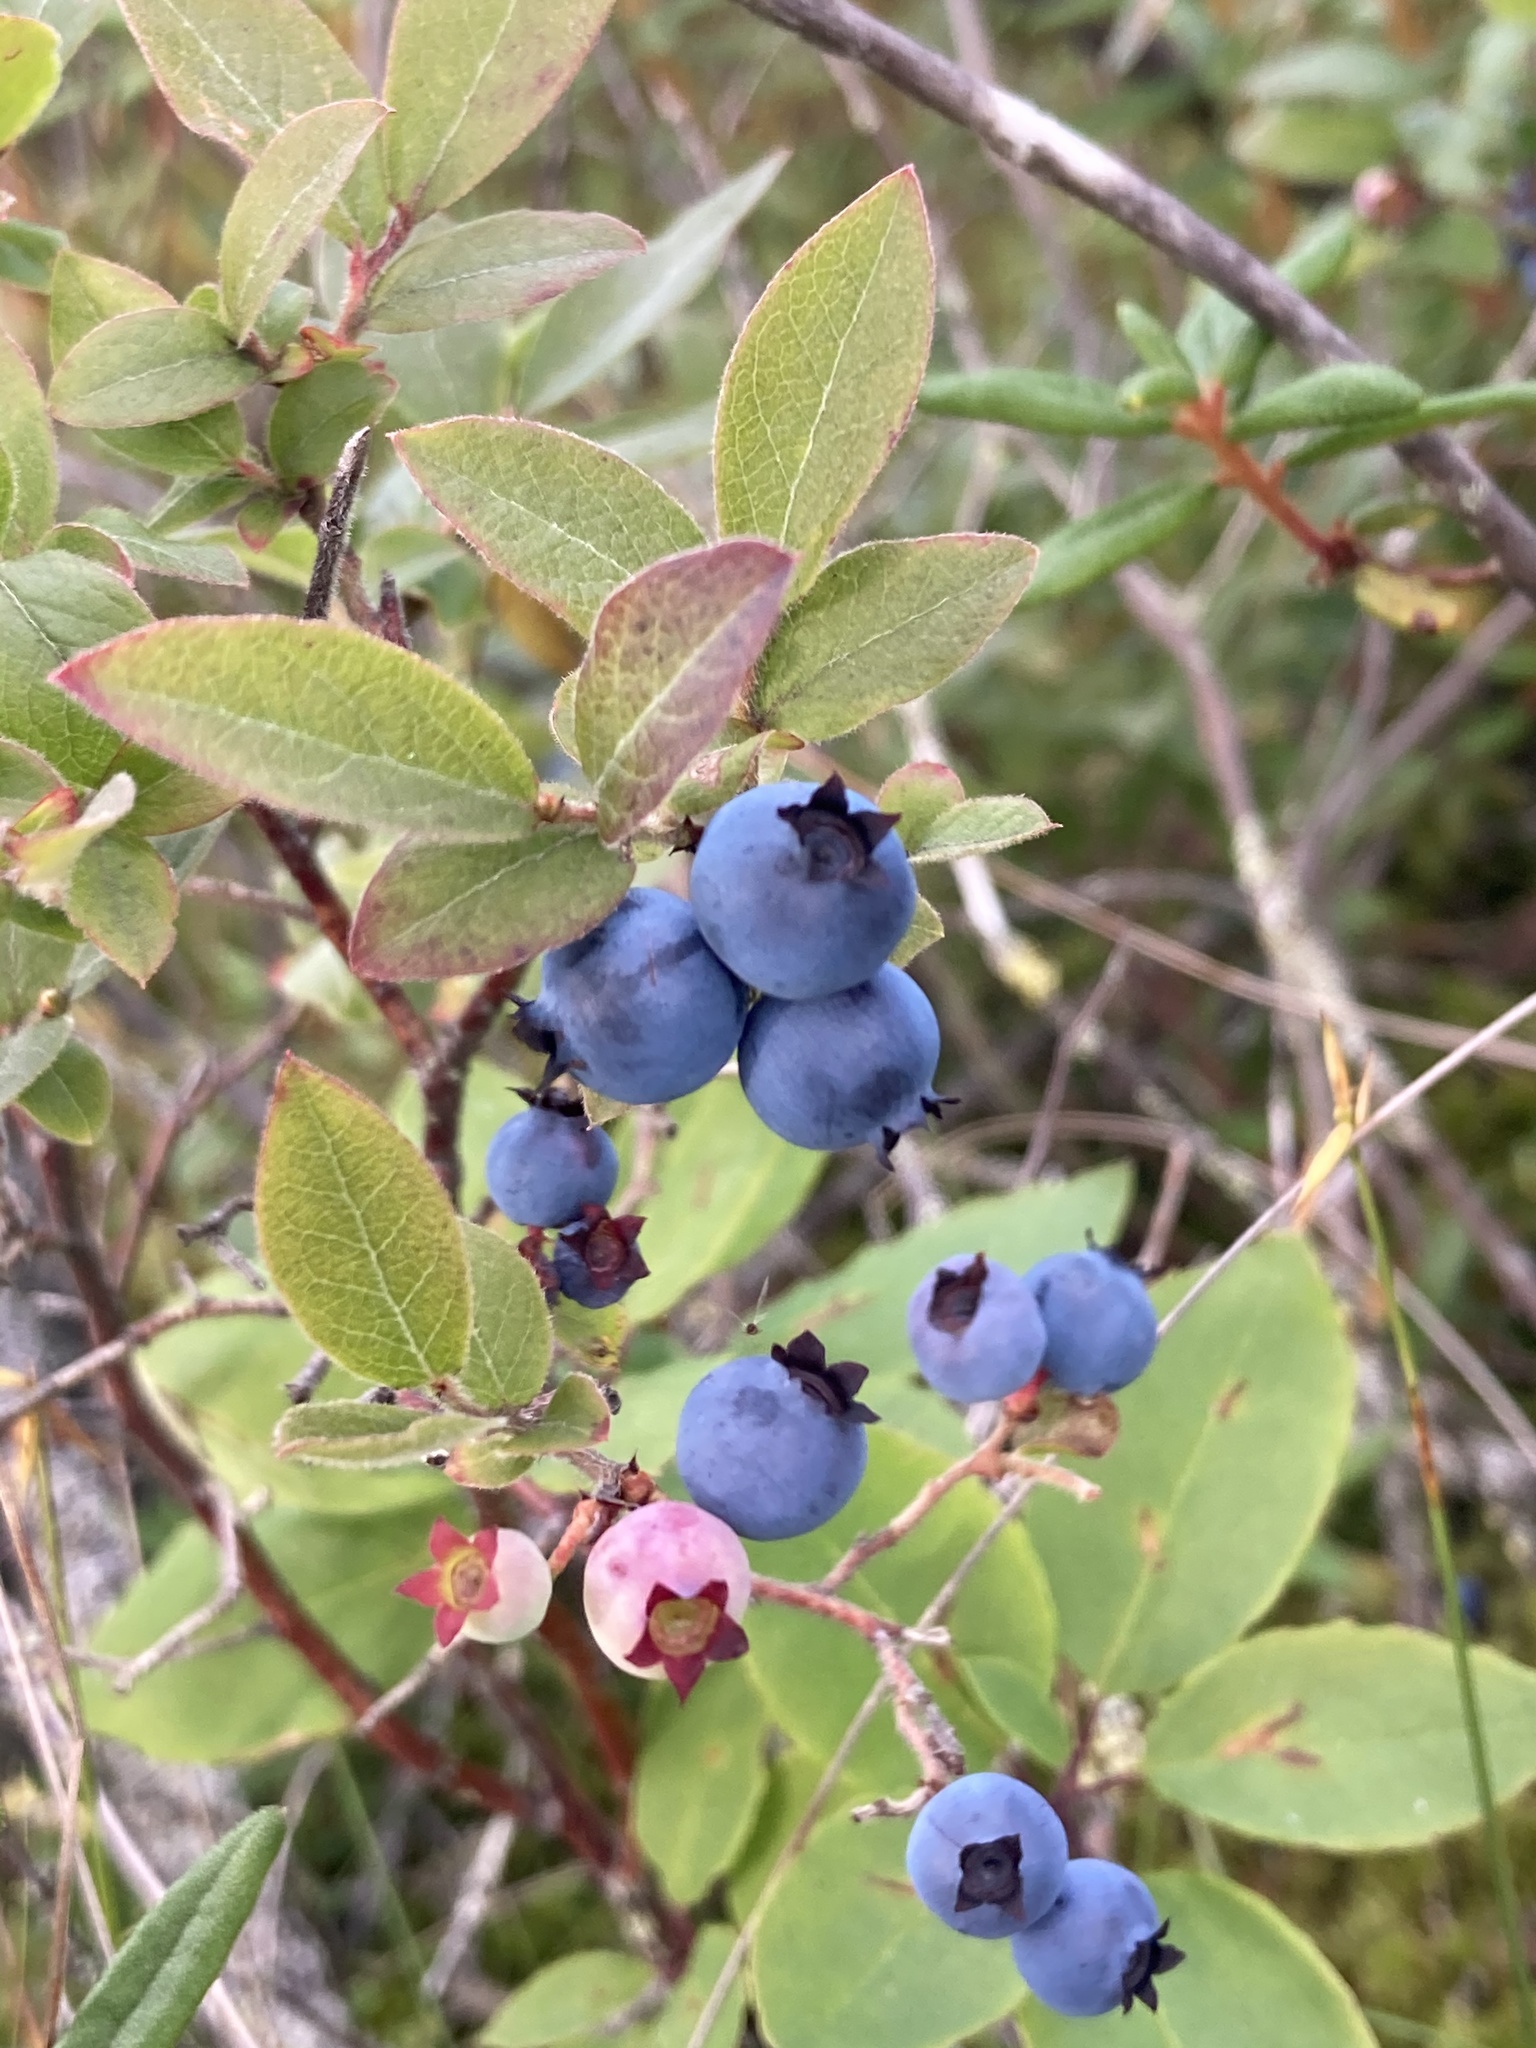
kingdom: Plantae
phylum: Tracheophyta
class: Magnoliopsida
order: Ericales
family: Ericaceae
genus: Vaccinium
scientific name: Vaccinium angustifolium
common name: Early lowbush blueberry
